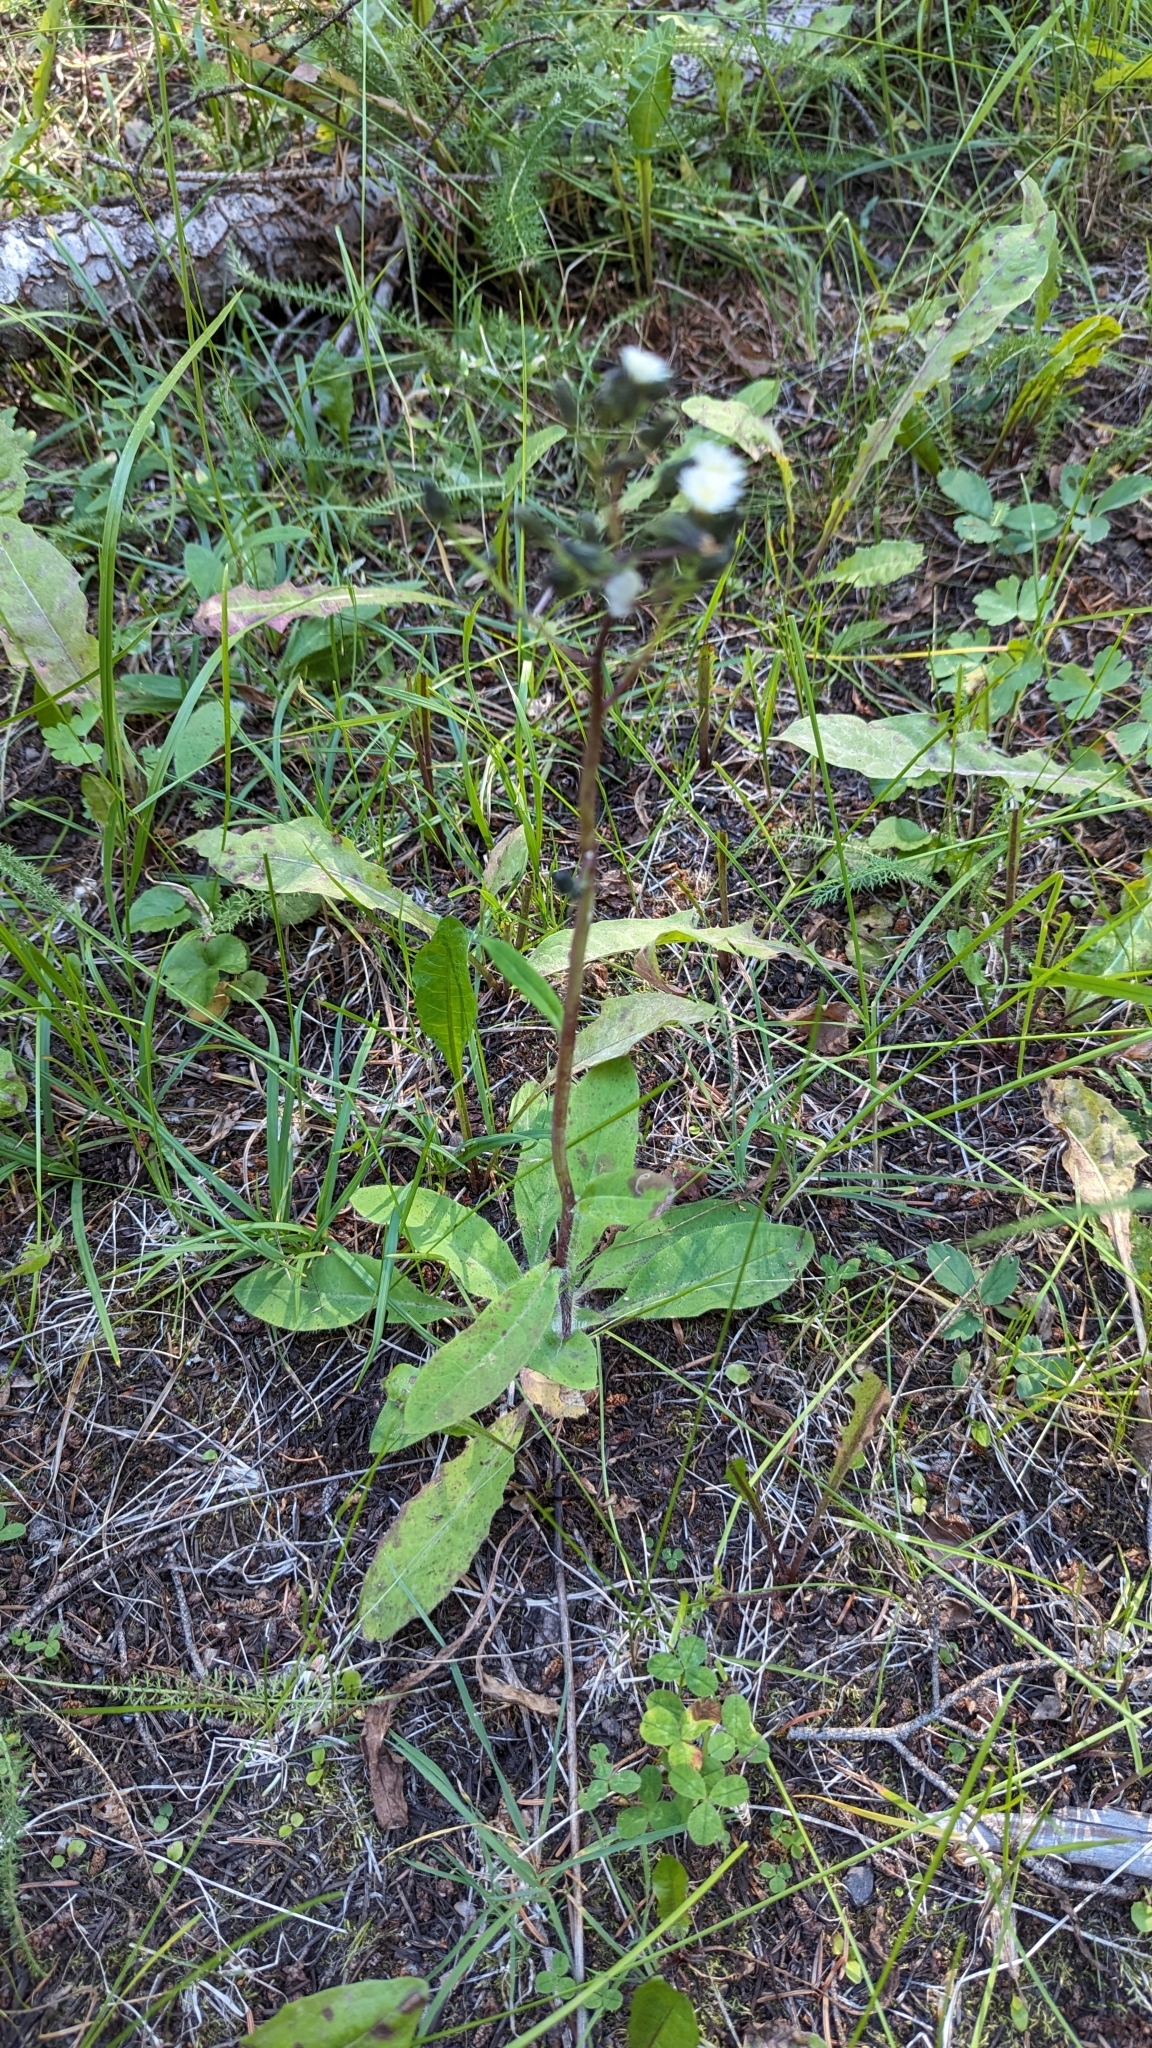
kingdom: Plantae
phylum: Tracheophyta
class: Magnoliopsida
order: Asterales
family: Asteraceae
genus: Hieracium
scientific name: Hieracium albiflorum
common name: White hawkweed
